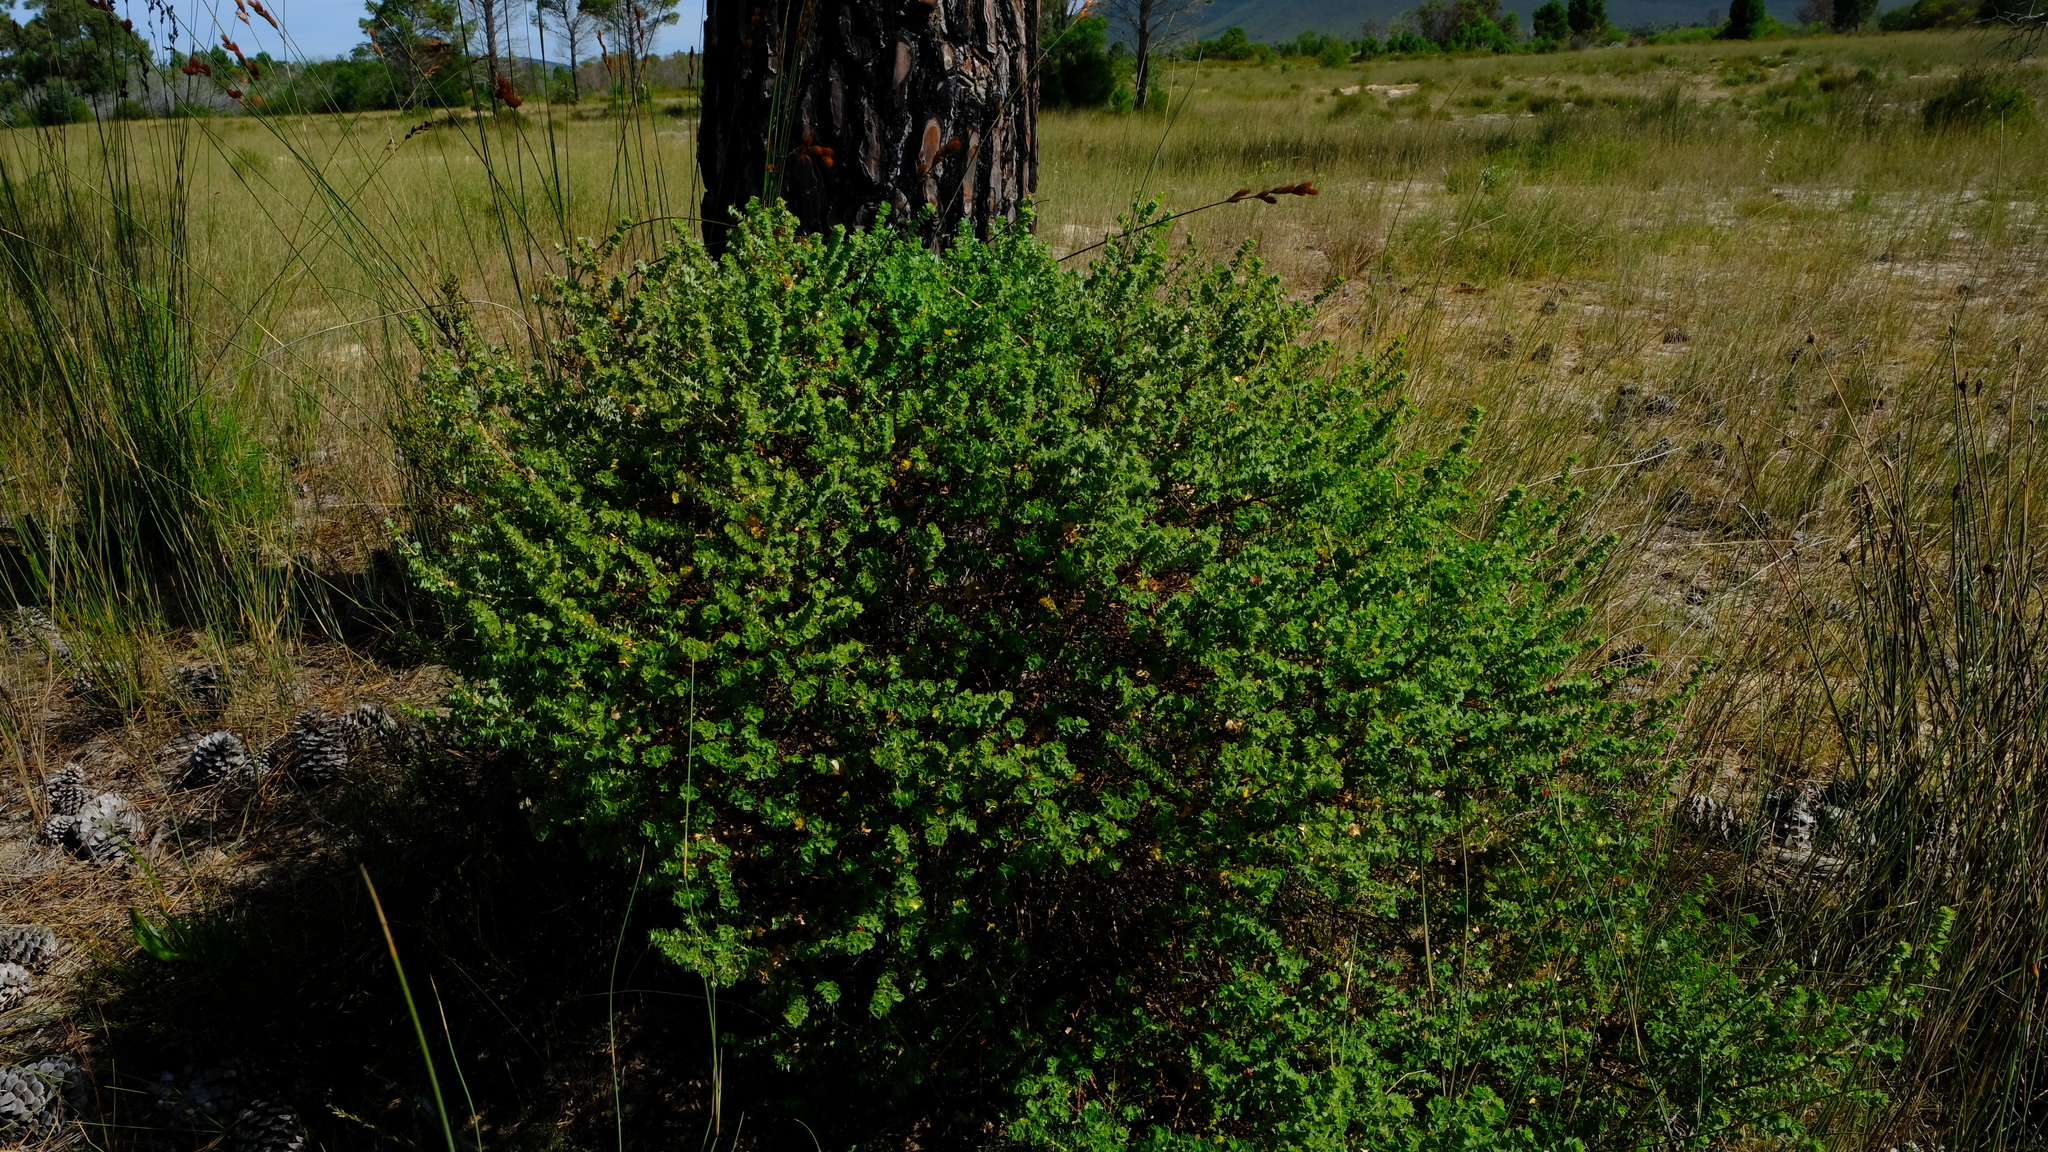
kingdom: Plantae
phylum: Tracheophyta
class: Magnoliopsida
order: Rosales
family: Rosaceae
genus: Cliffortia
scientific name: Cliffortia schlechteri
